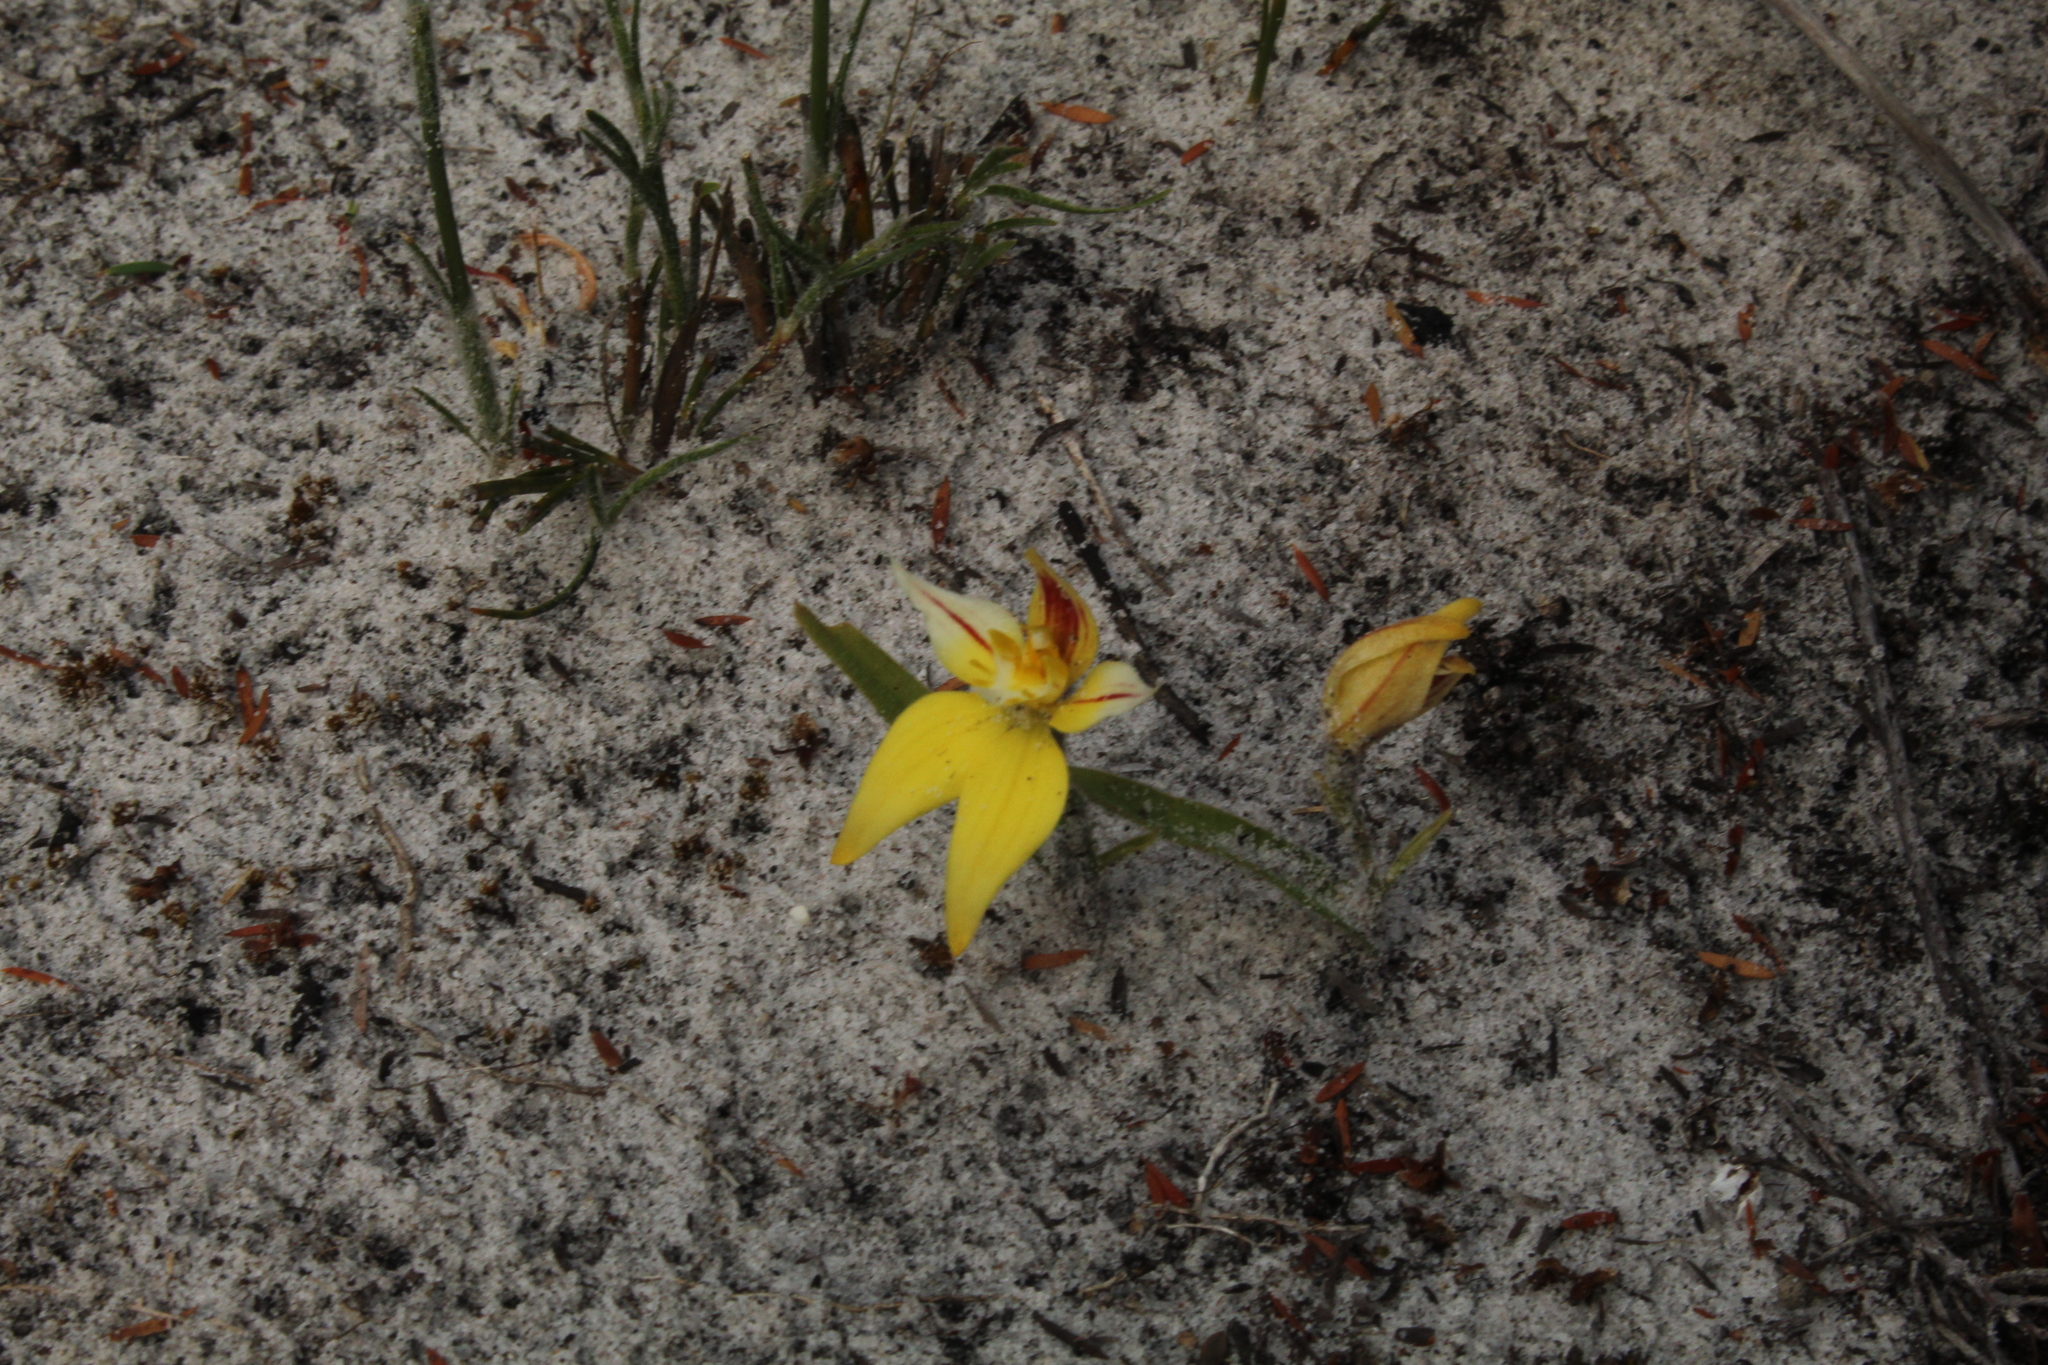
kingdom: Plantae
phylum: Tracheophyta
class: Liliopsida
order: Asparagales
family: Orchidaceae
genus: Caladenia
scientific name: Caladenia flava
